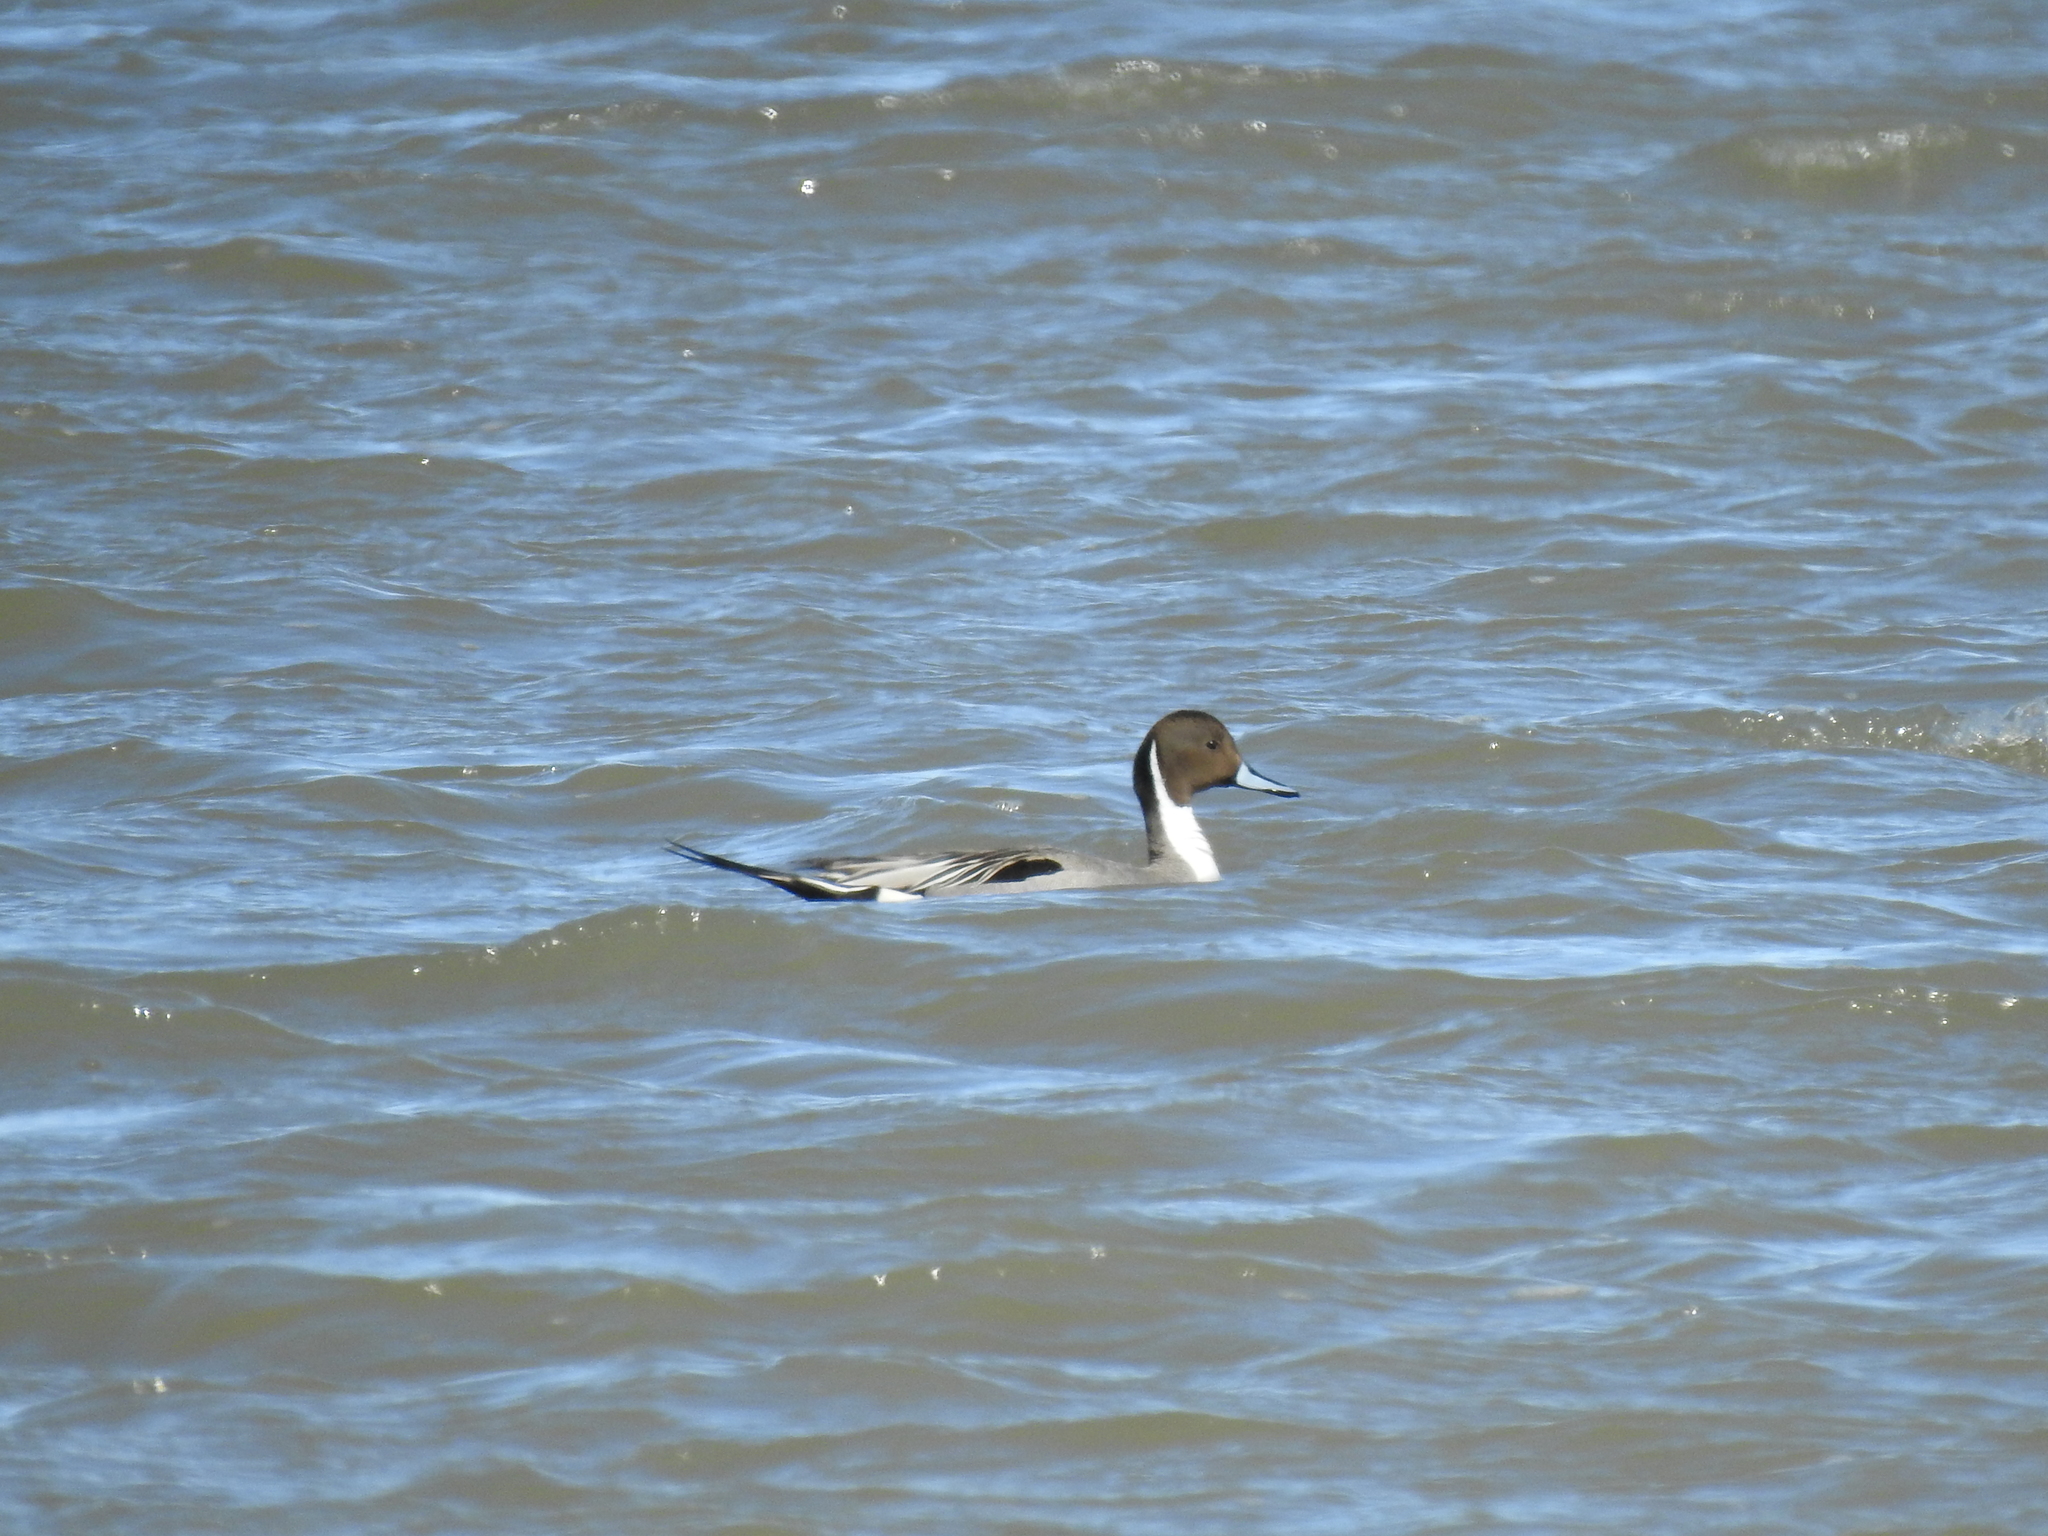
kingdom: Animalia
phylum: Chordata
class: Aves
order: Anseriformes
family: Anatidae
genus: Anas
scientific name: Anas acuta
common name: Northern pintail
